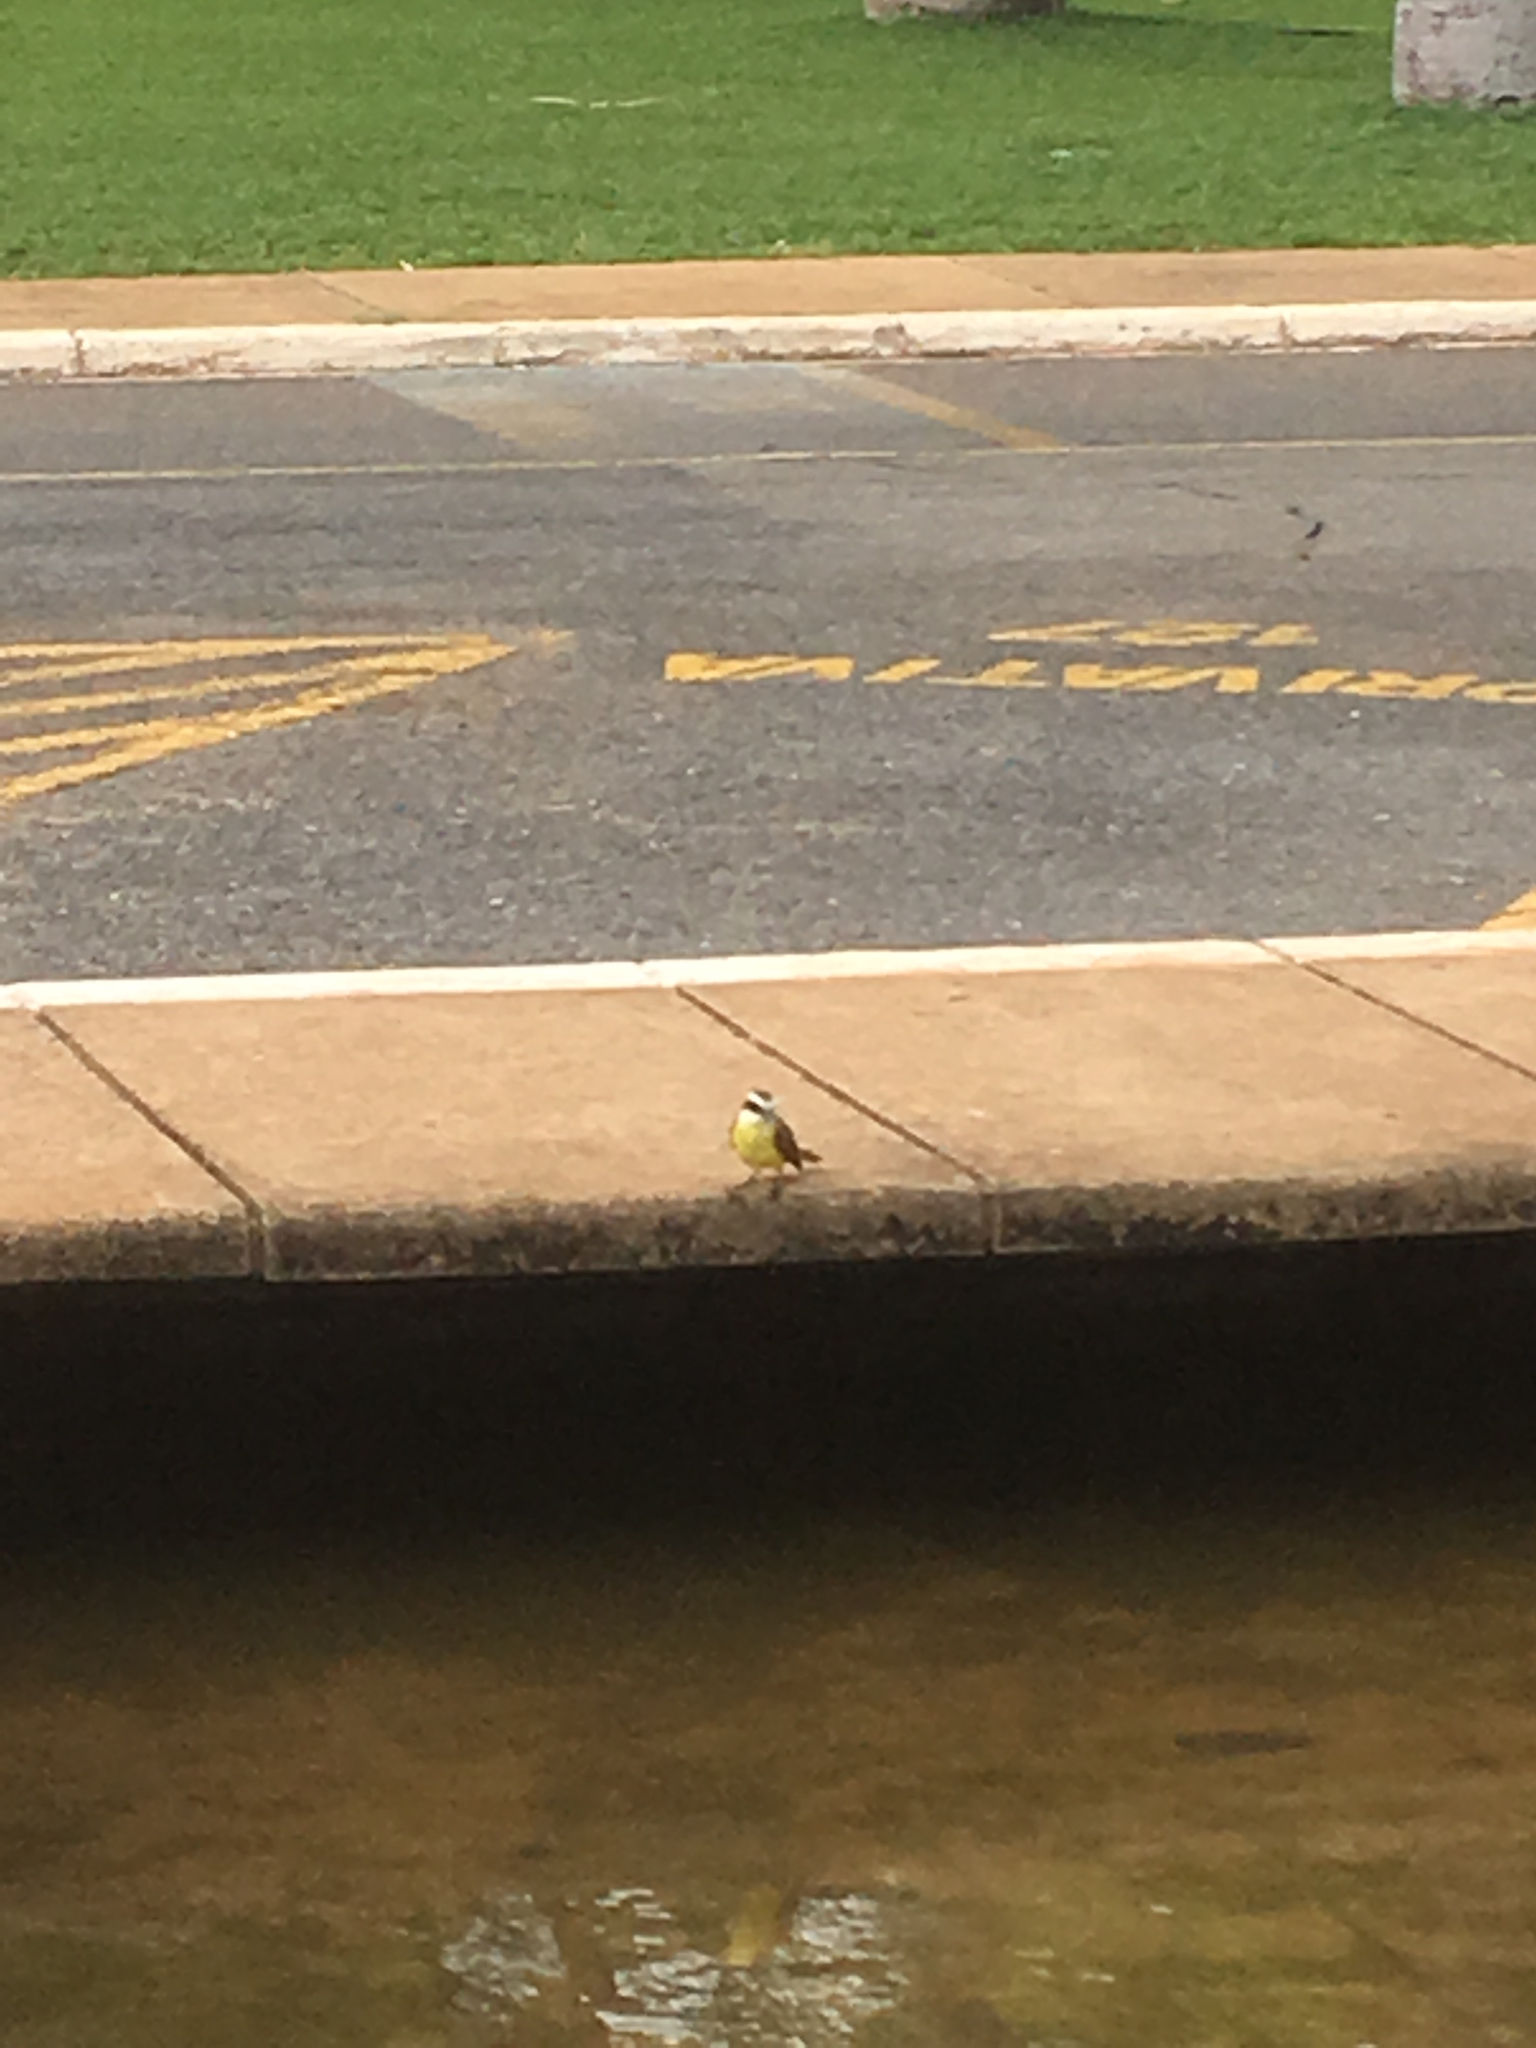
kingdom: Animalia
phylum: Chordata
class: Aves
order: Passeriformes
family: Tyrannidae
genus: Pitangus
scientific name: Pitangus sulphuratus
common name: Great kiskadee
